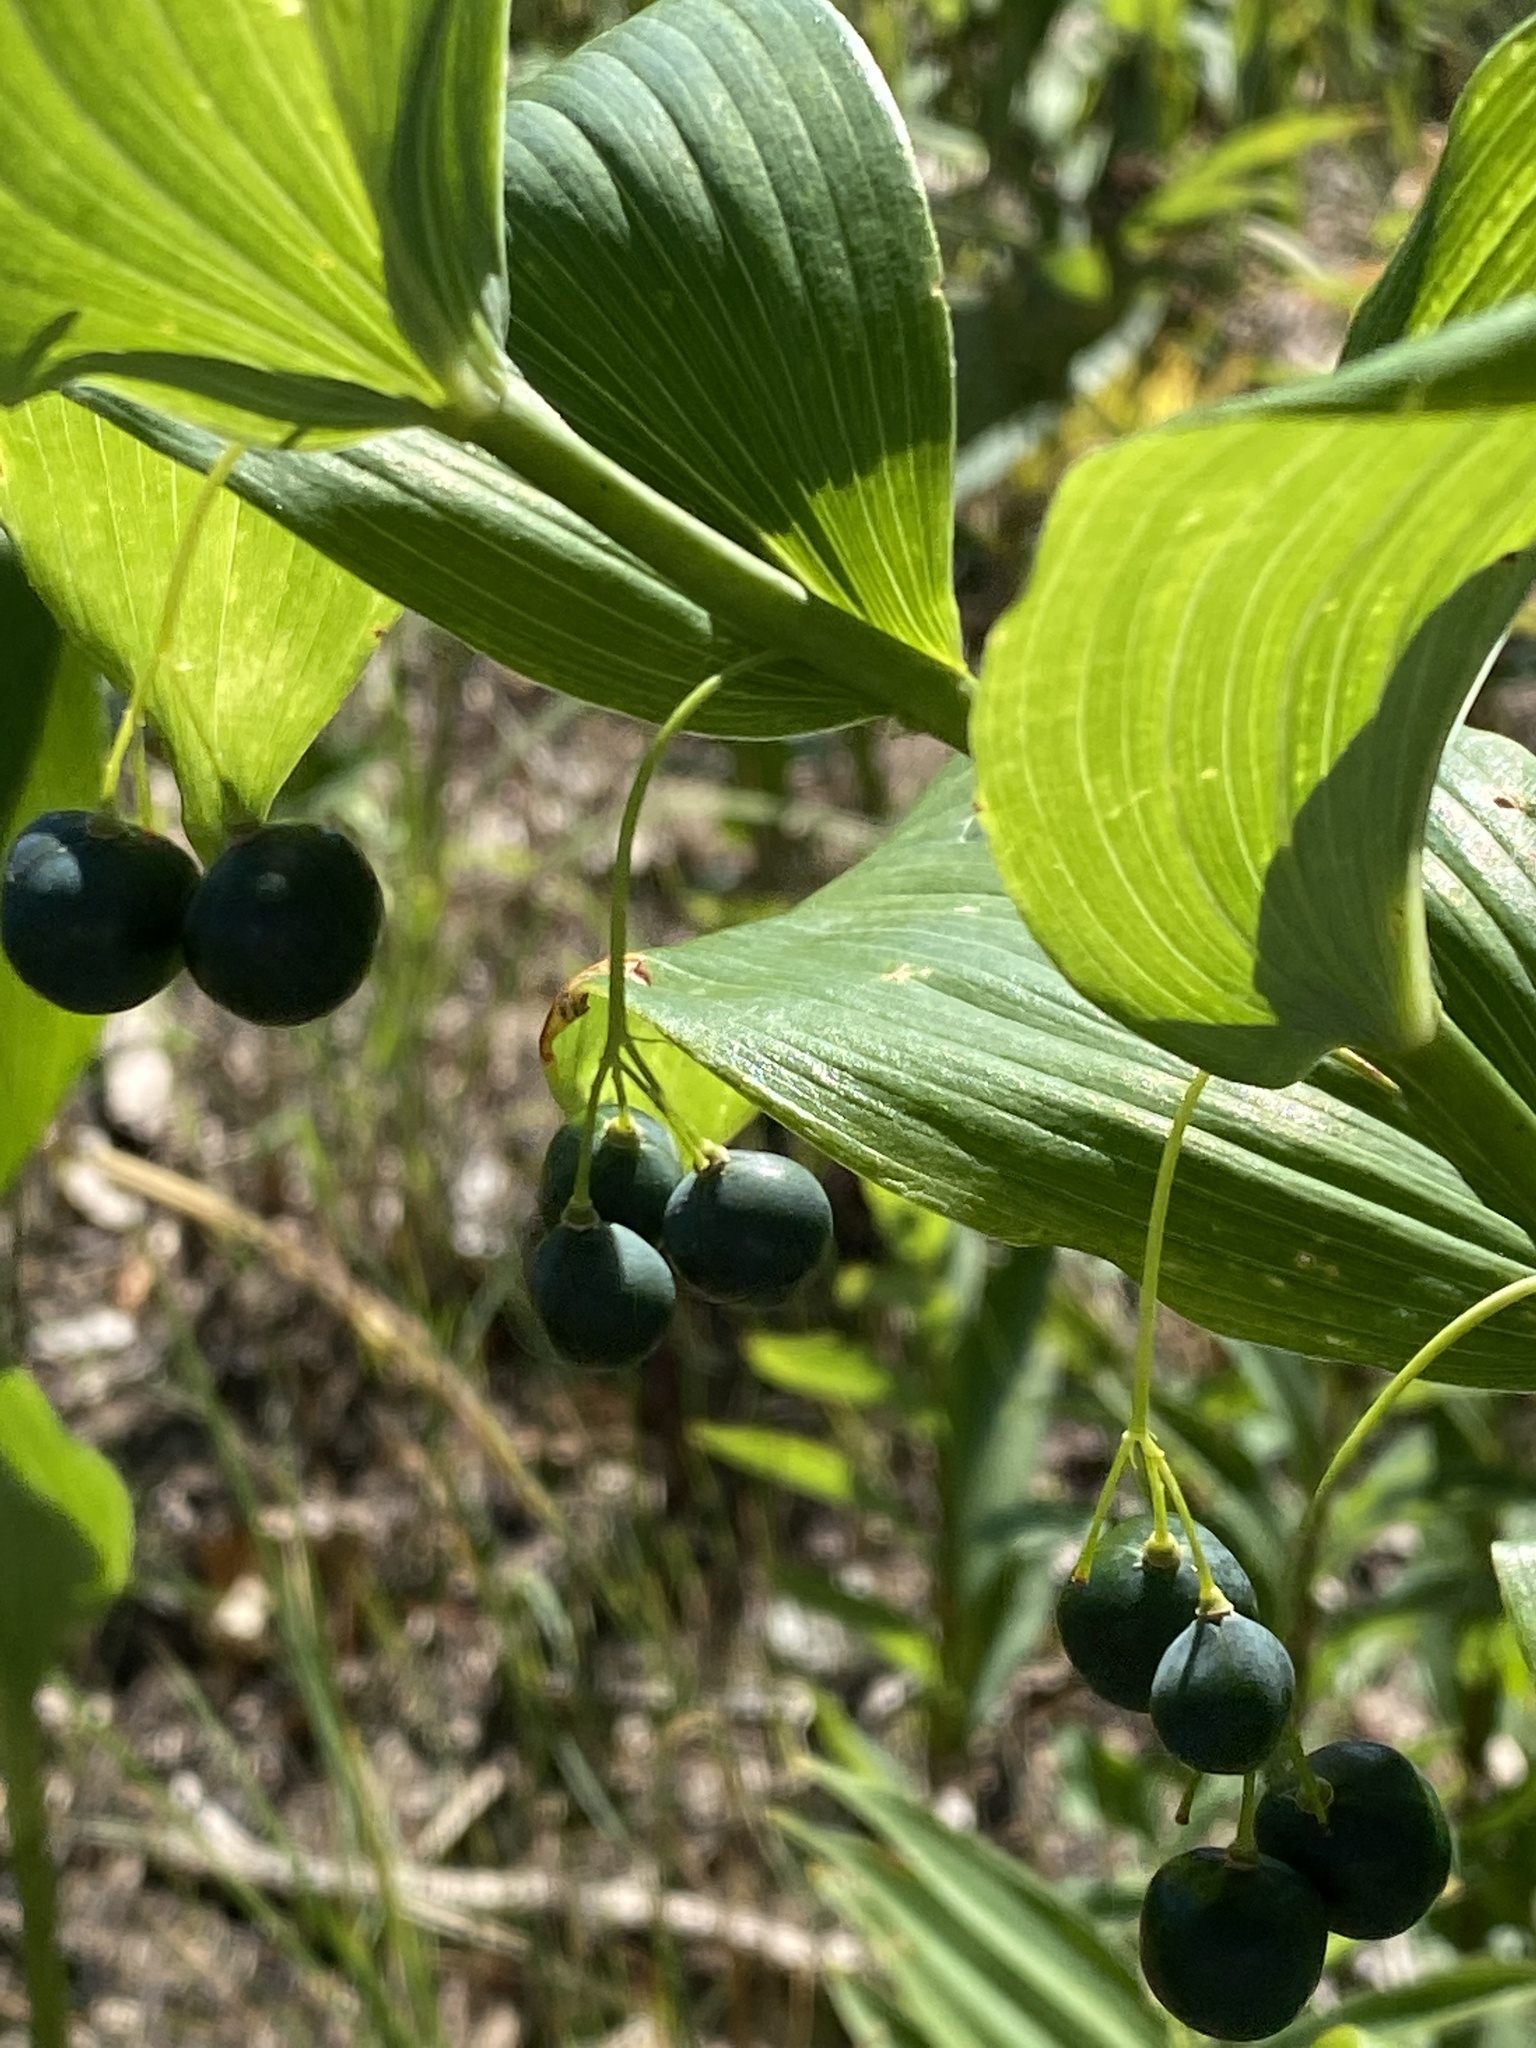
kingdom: Plantae
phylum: Tracheophyta
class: Liliopsida
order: Asparagales
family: Asparagaceae
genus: Polygonatum
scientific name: Polygonatum biflorum
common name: American solomon's-seal
